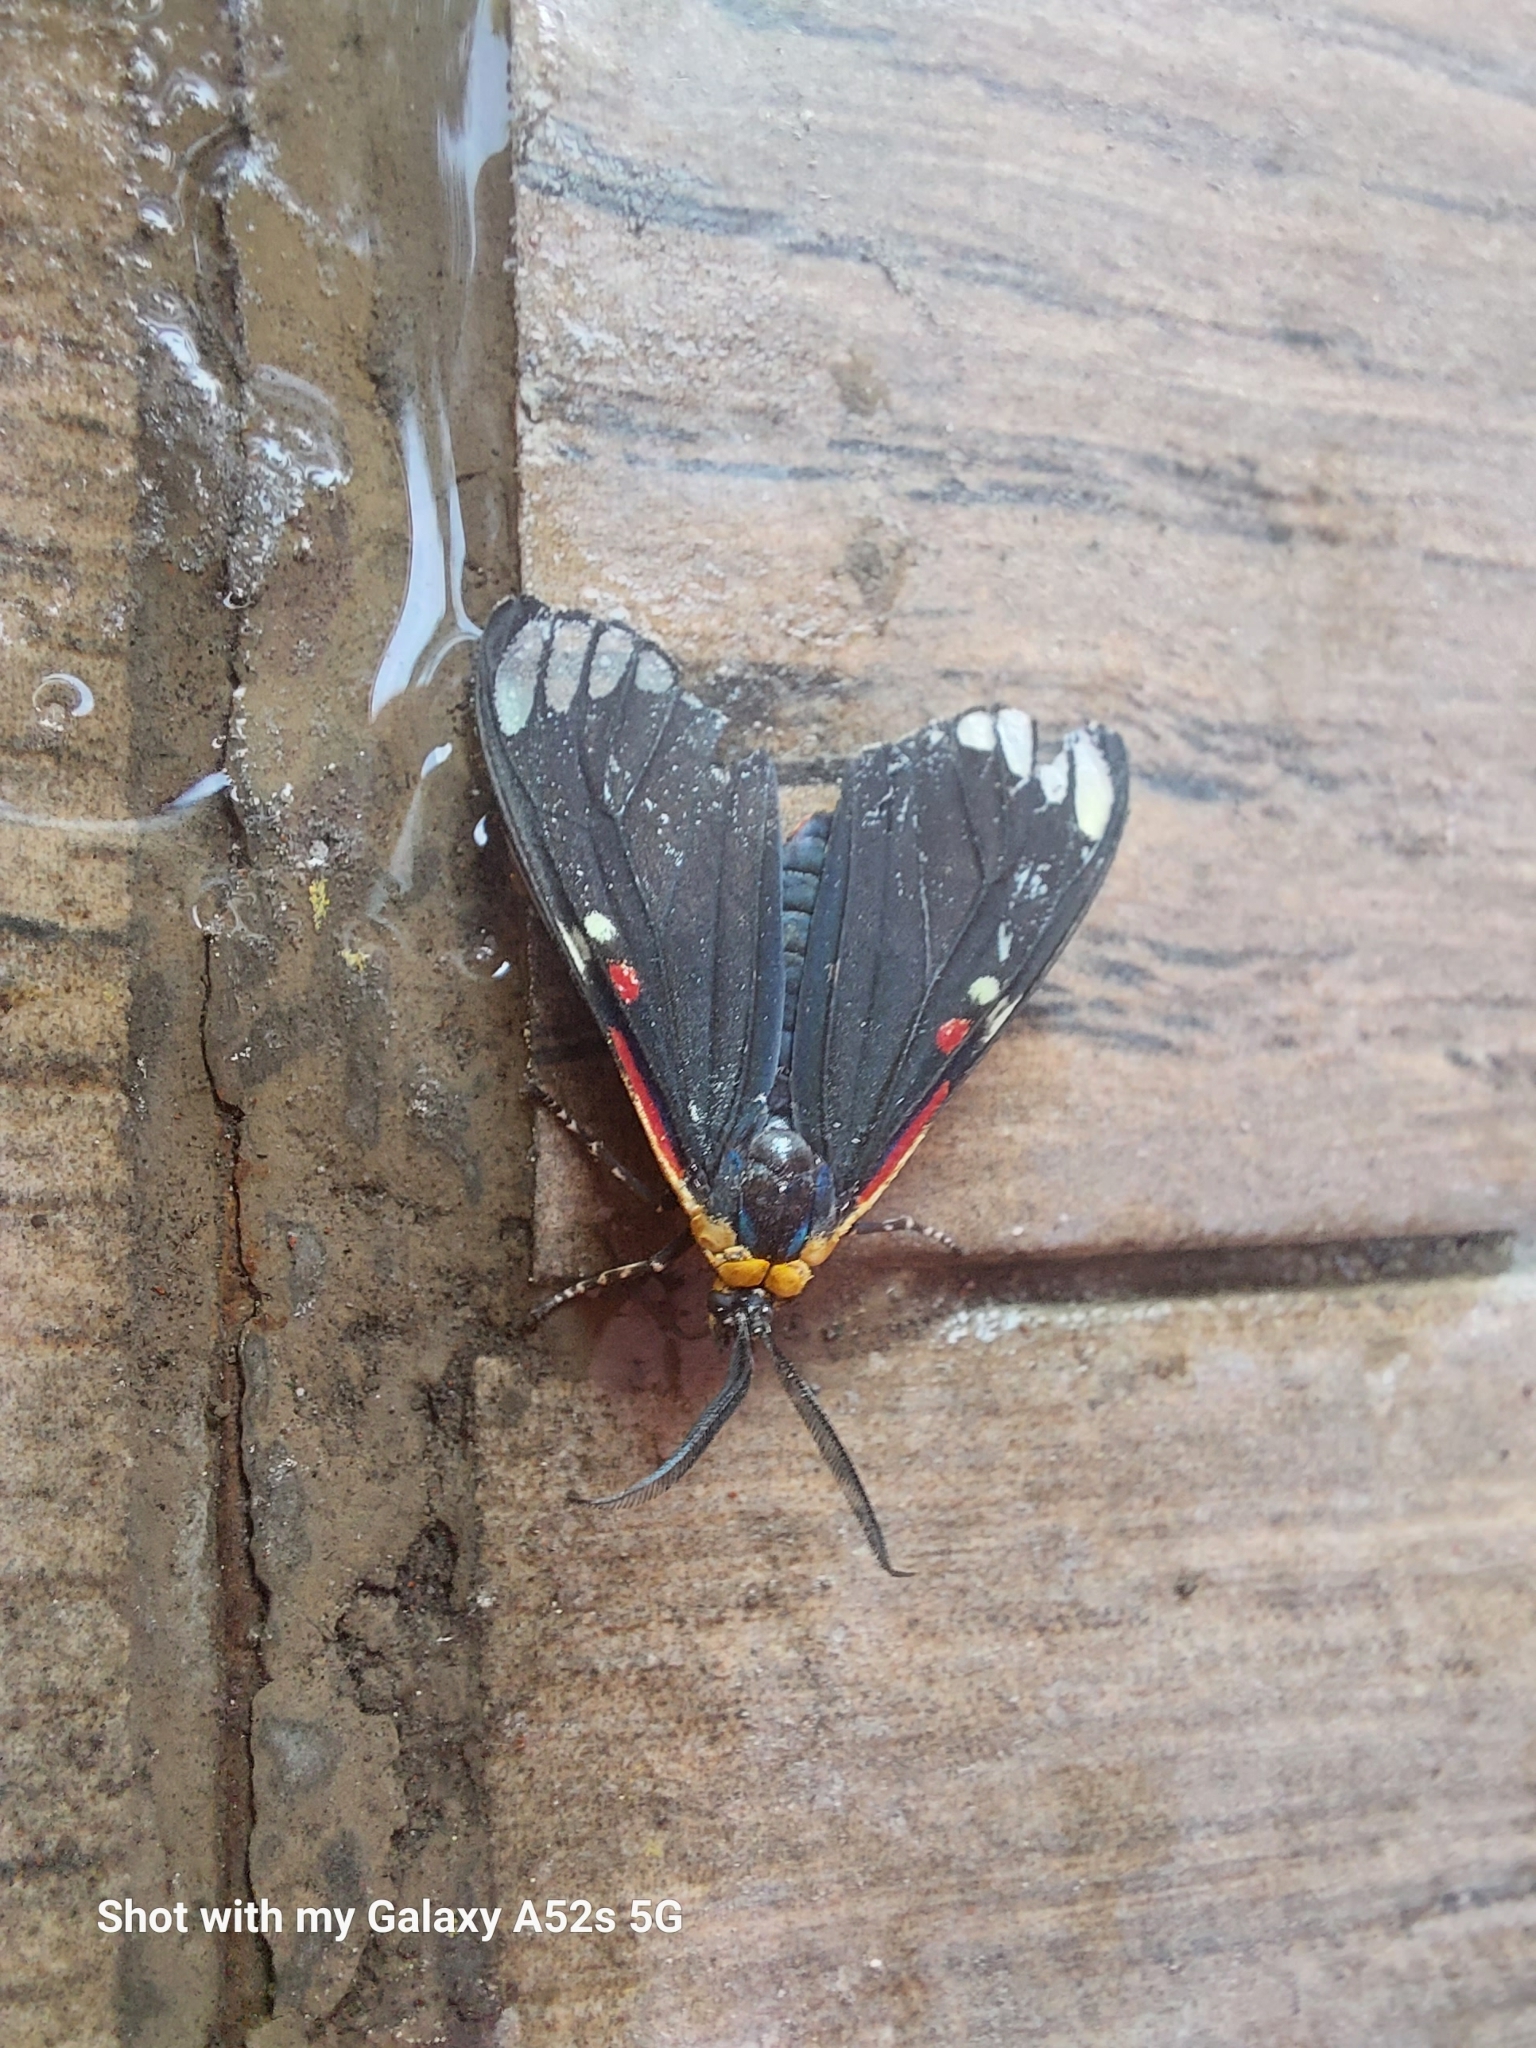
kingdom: Animalia
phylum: Arthropoda
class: Insecta
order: Lepidoptera
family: Erebidae
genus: Phaloesia
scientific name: Phaloesia saucia
